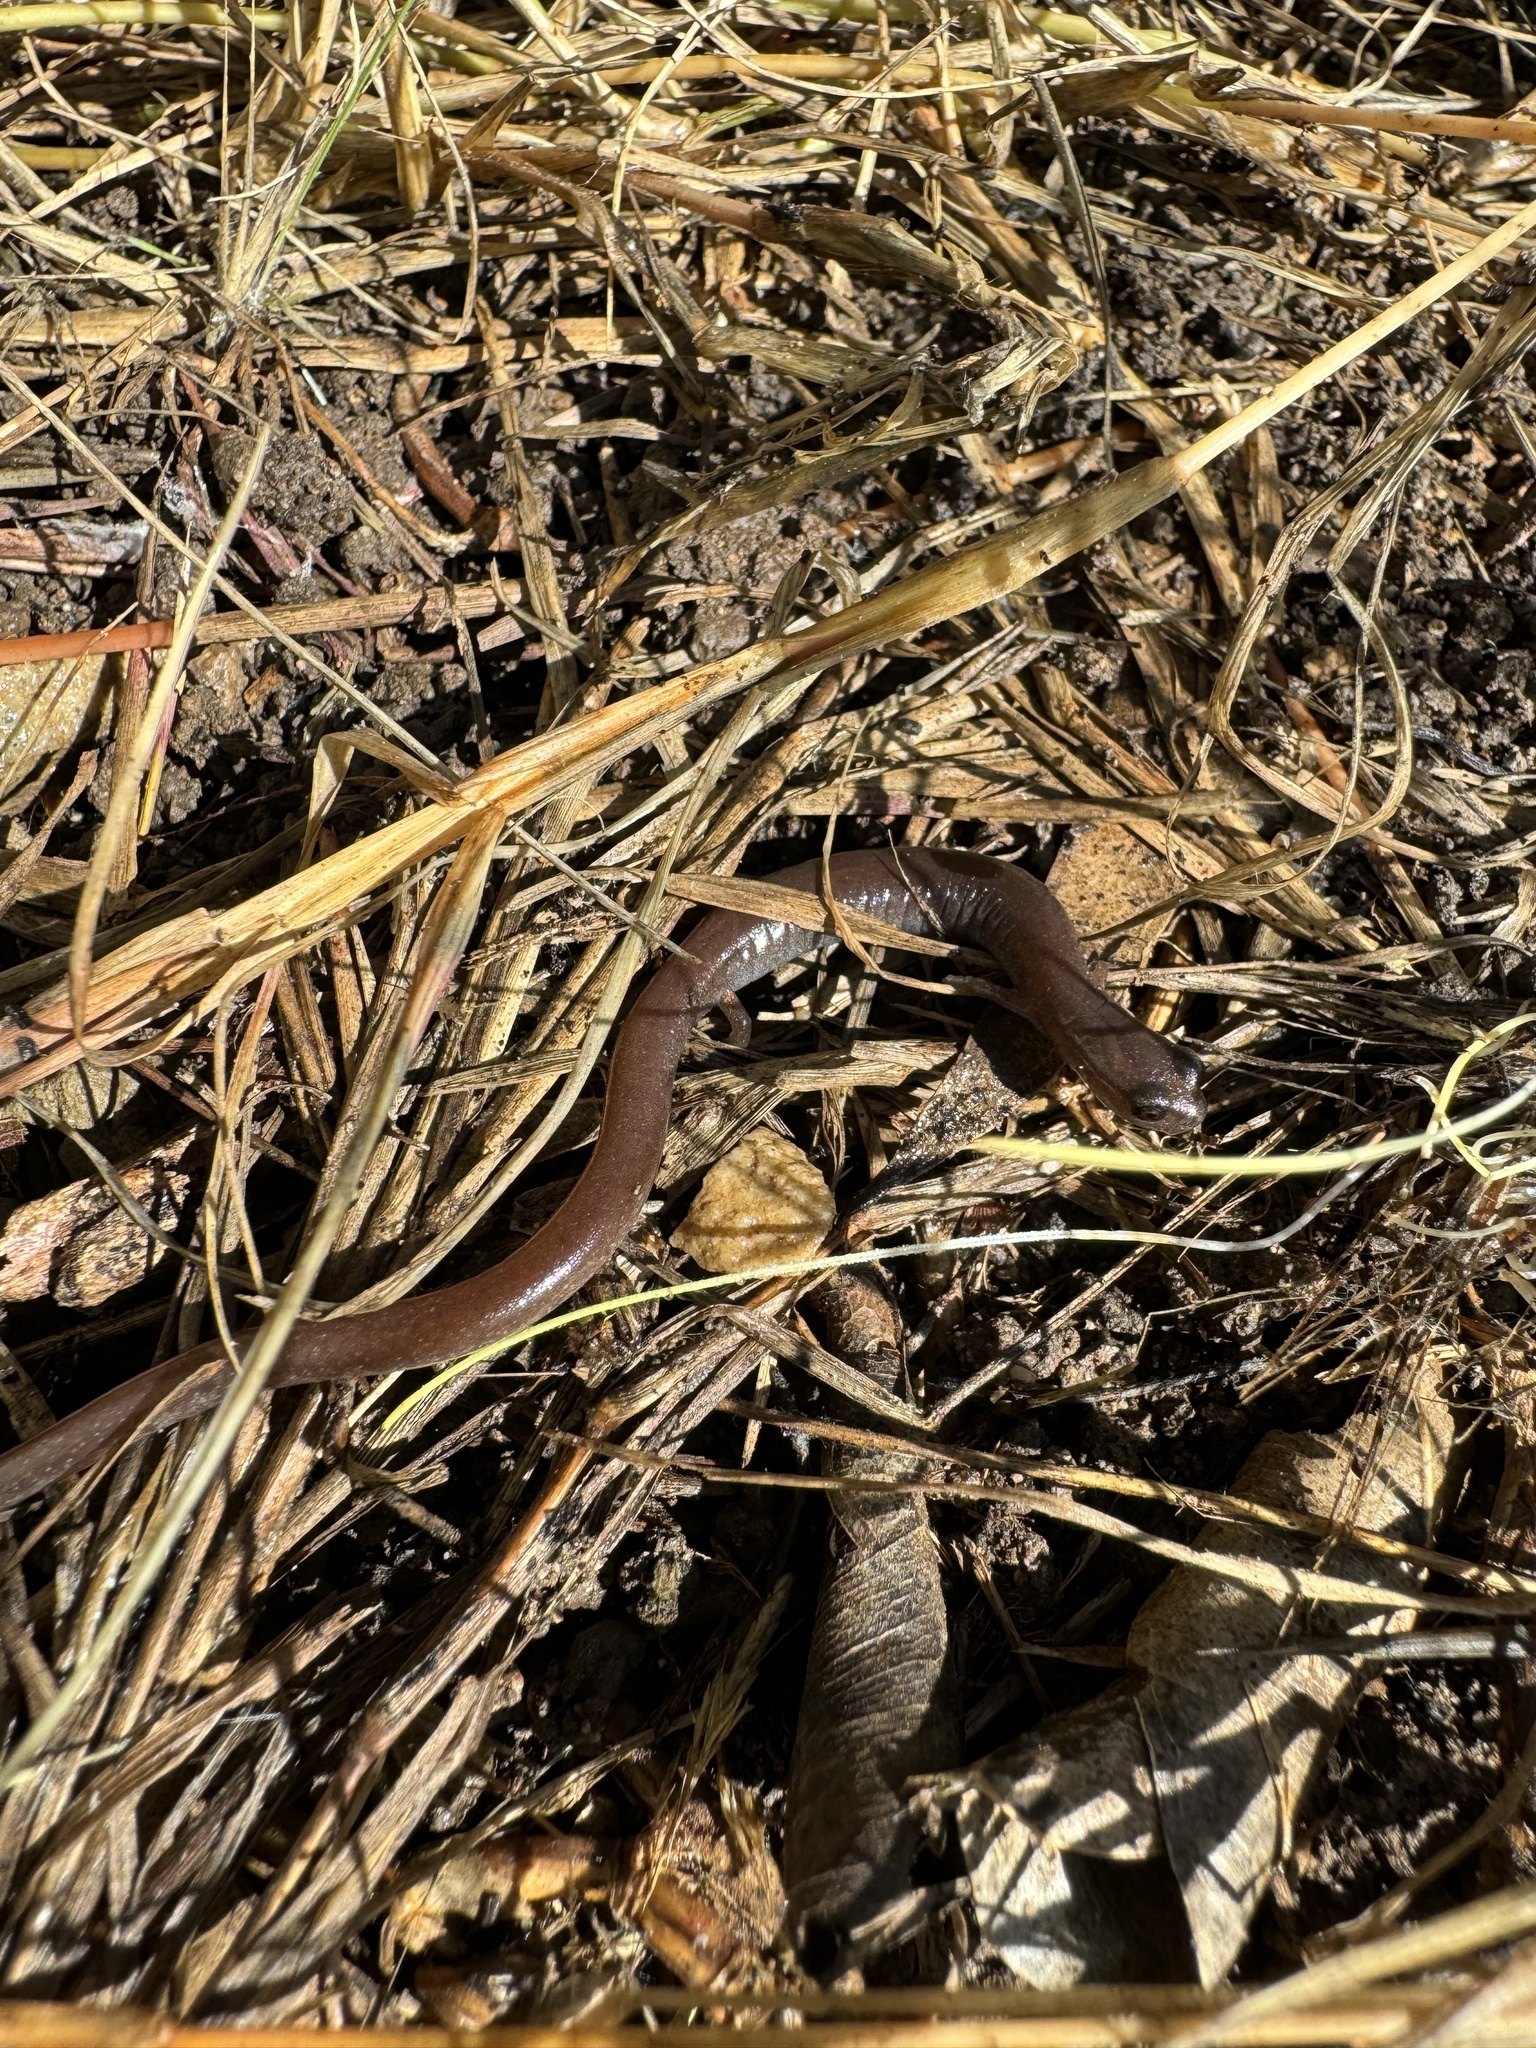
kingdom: Animalia
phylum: Chordata
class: Amphibia
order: Caudata
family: Plethodontidae
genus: Batrachoseps
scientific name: Batrachoseps major
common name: Garden slender salamander
